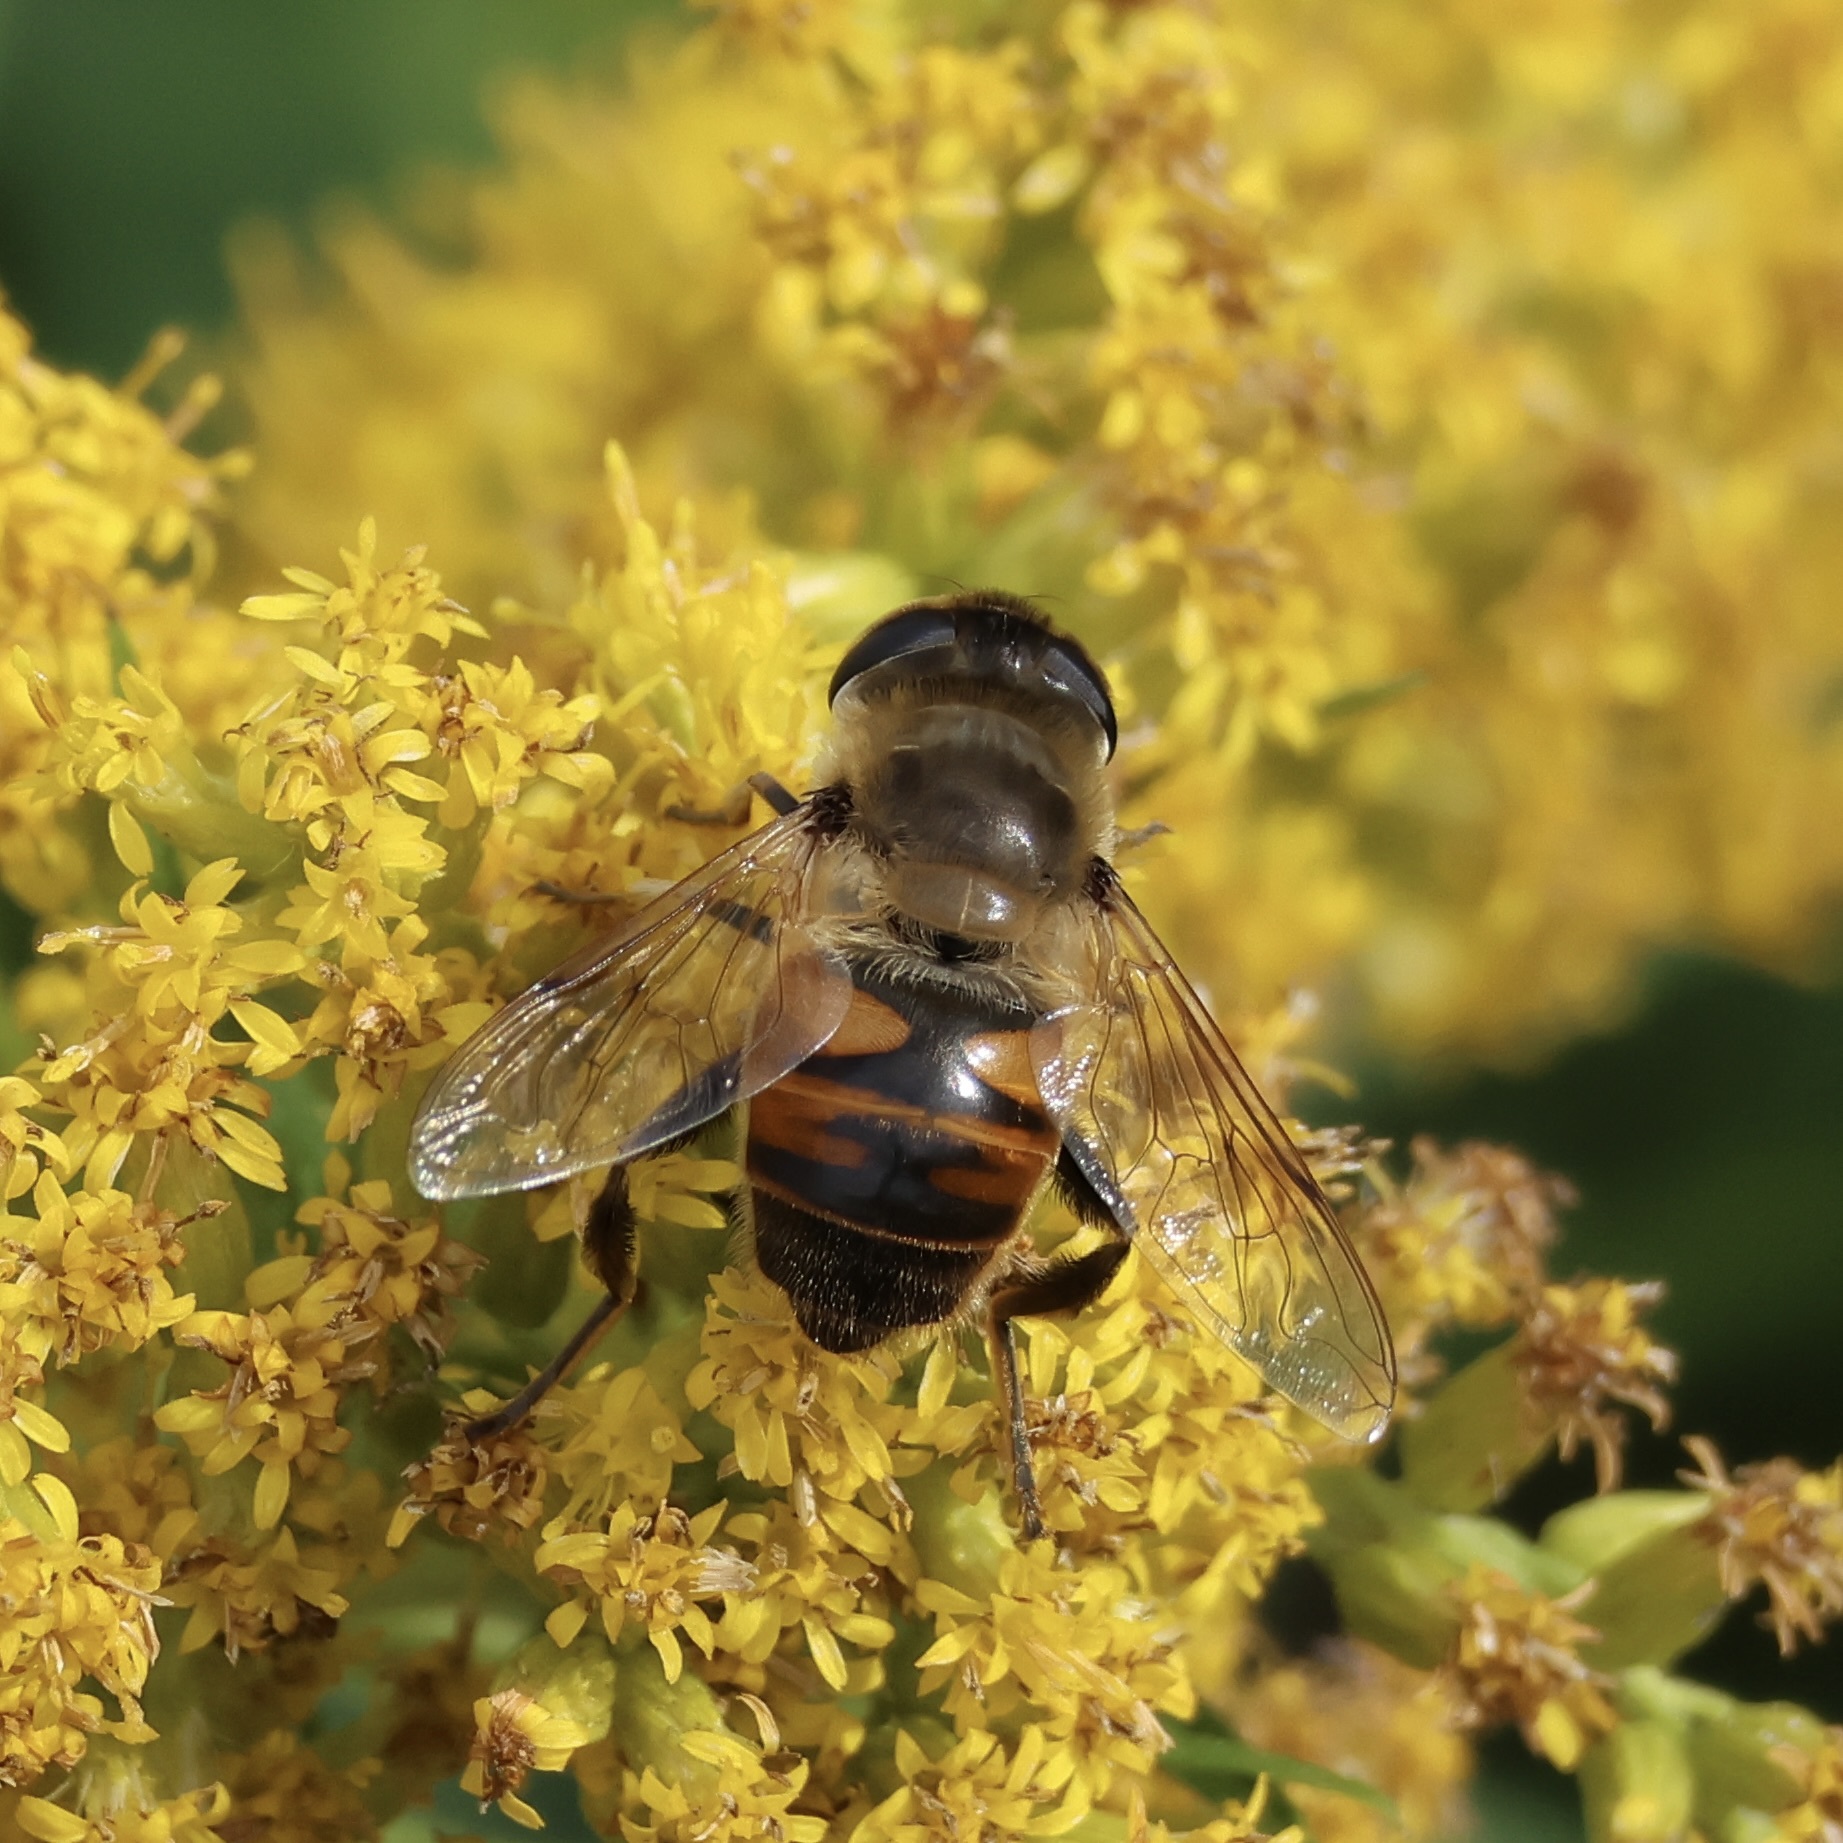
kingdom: Animalia
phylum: Arthropoda
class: Insecta
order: Diptera
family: Syrphidae
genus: Eristalis
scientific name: Eristalis tenax
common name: Drone fly
